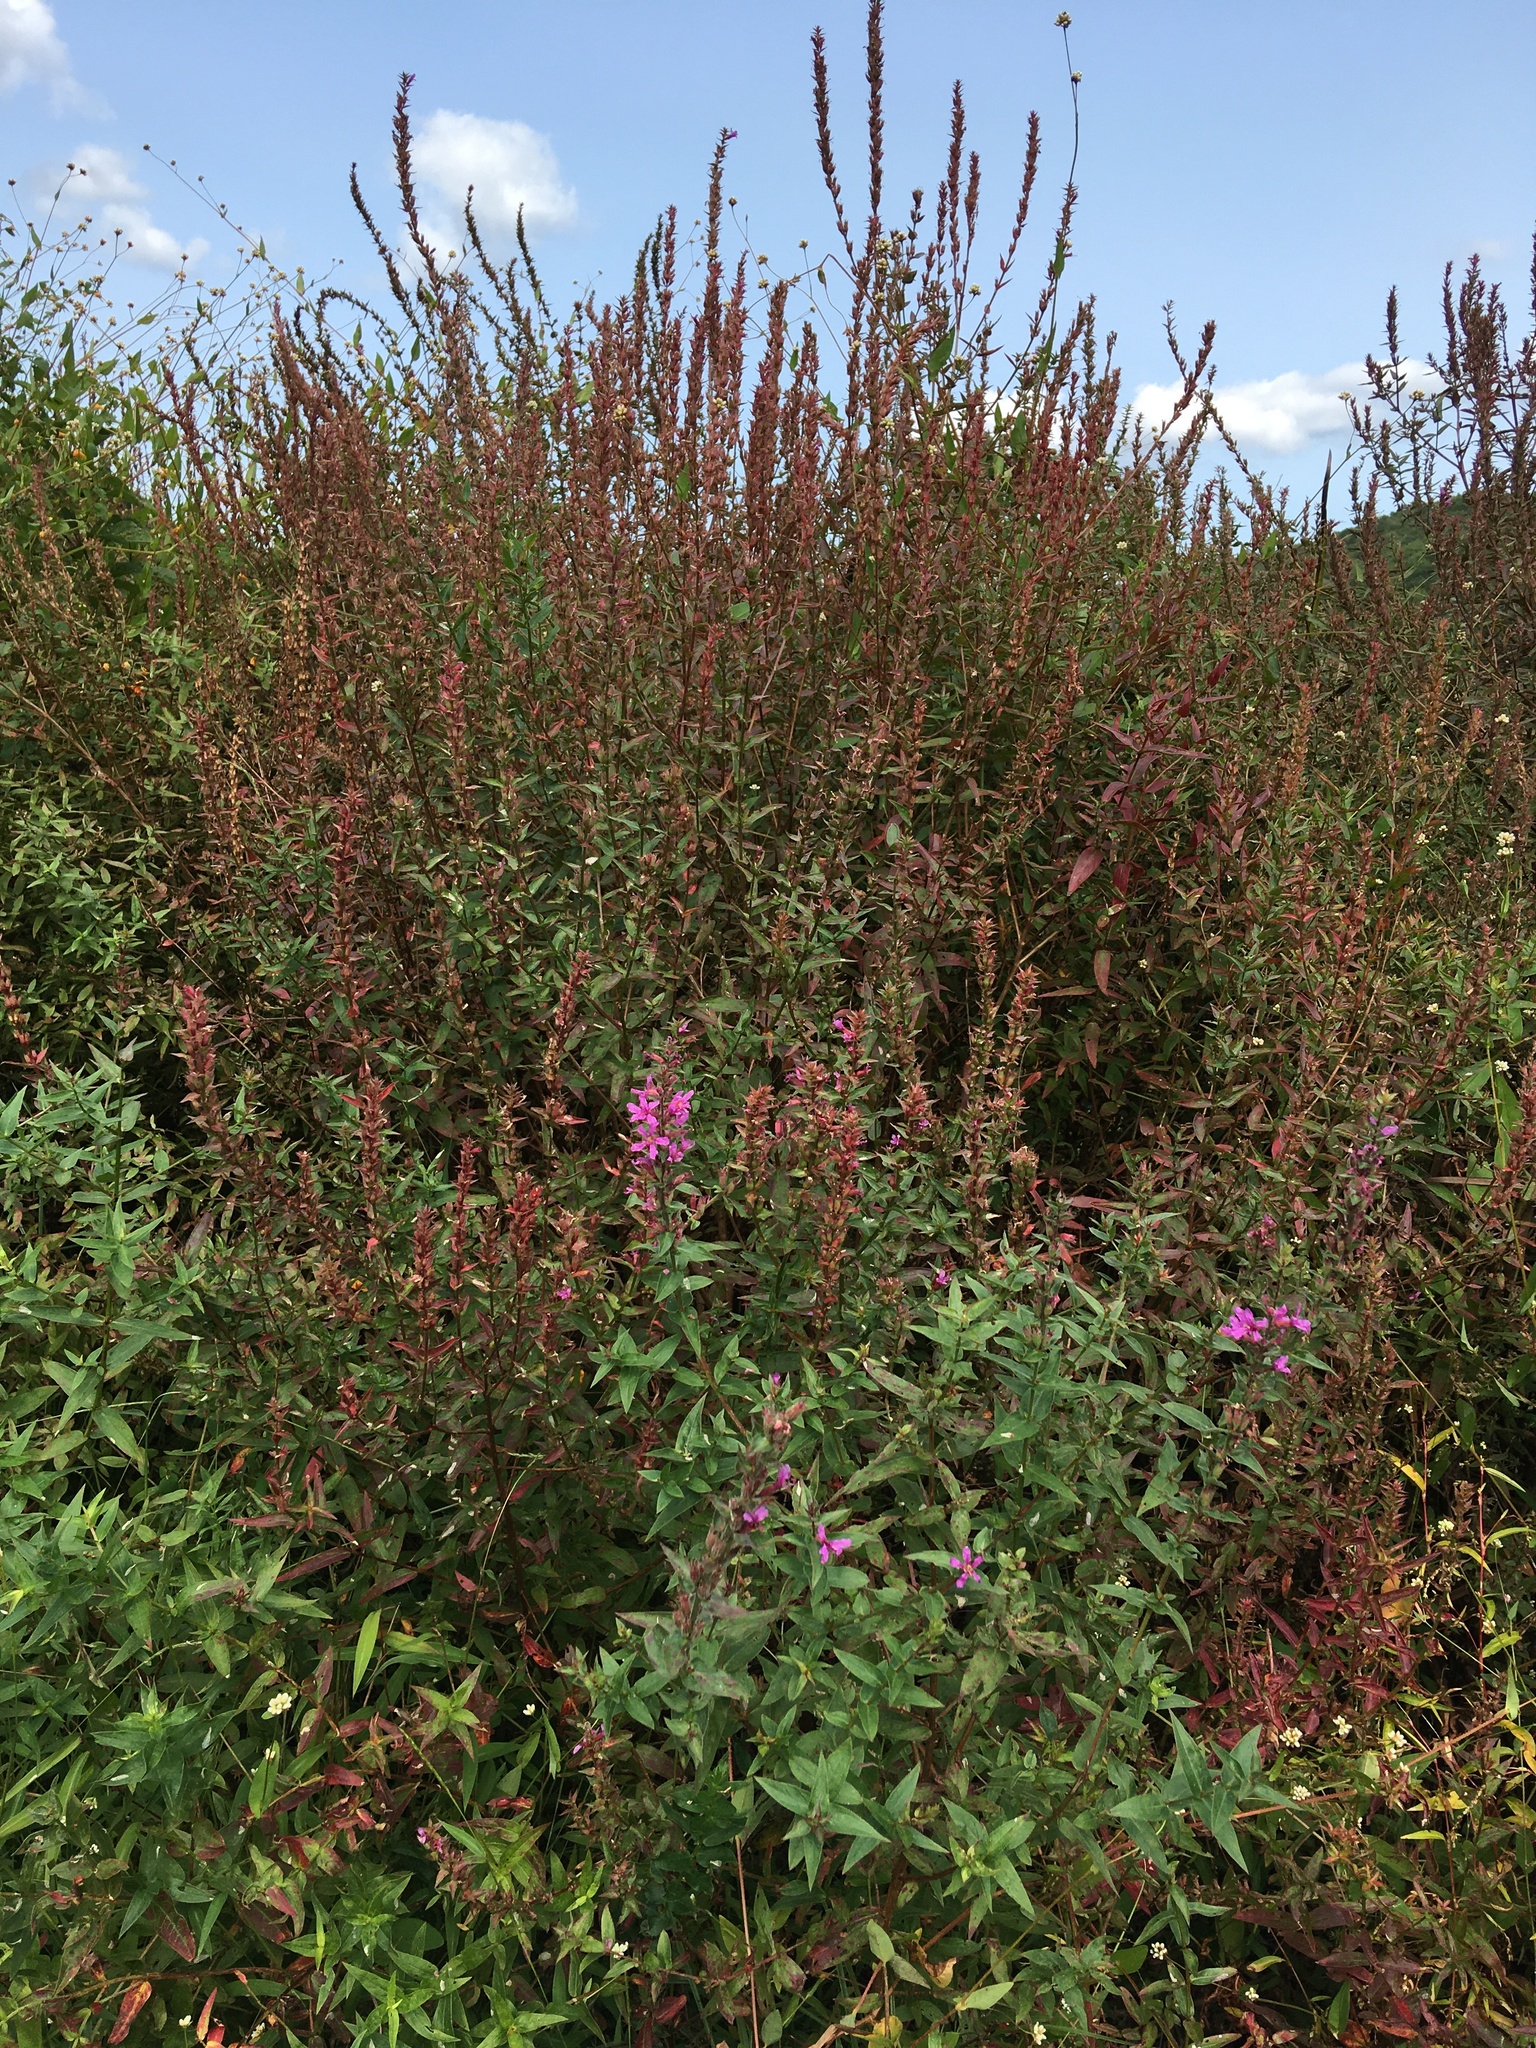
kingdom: Plantae
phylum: Tracheophyta
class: Magnoliopsida
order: Myrtales
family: Lythraceae
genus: Lythrum
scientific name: Lythrum salicaria
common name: Purple loosestrife
